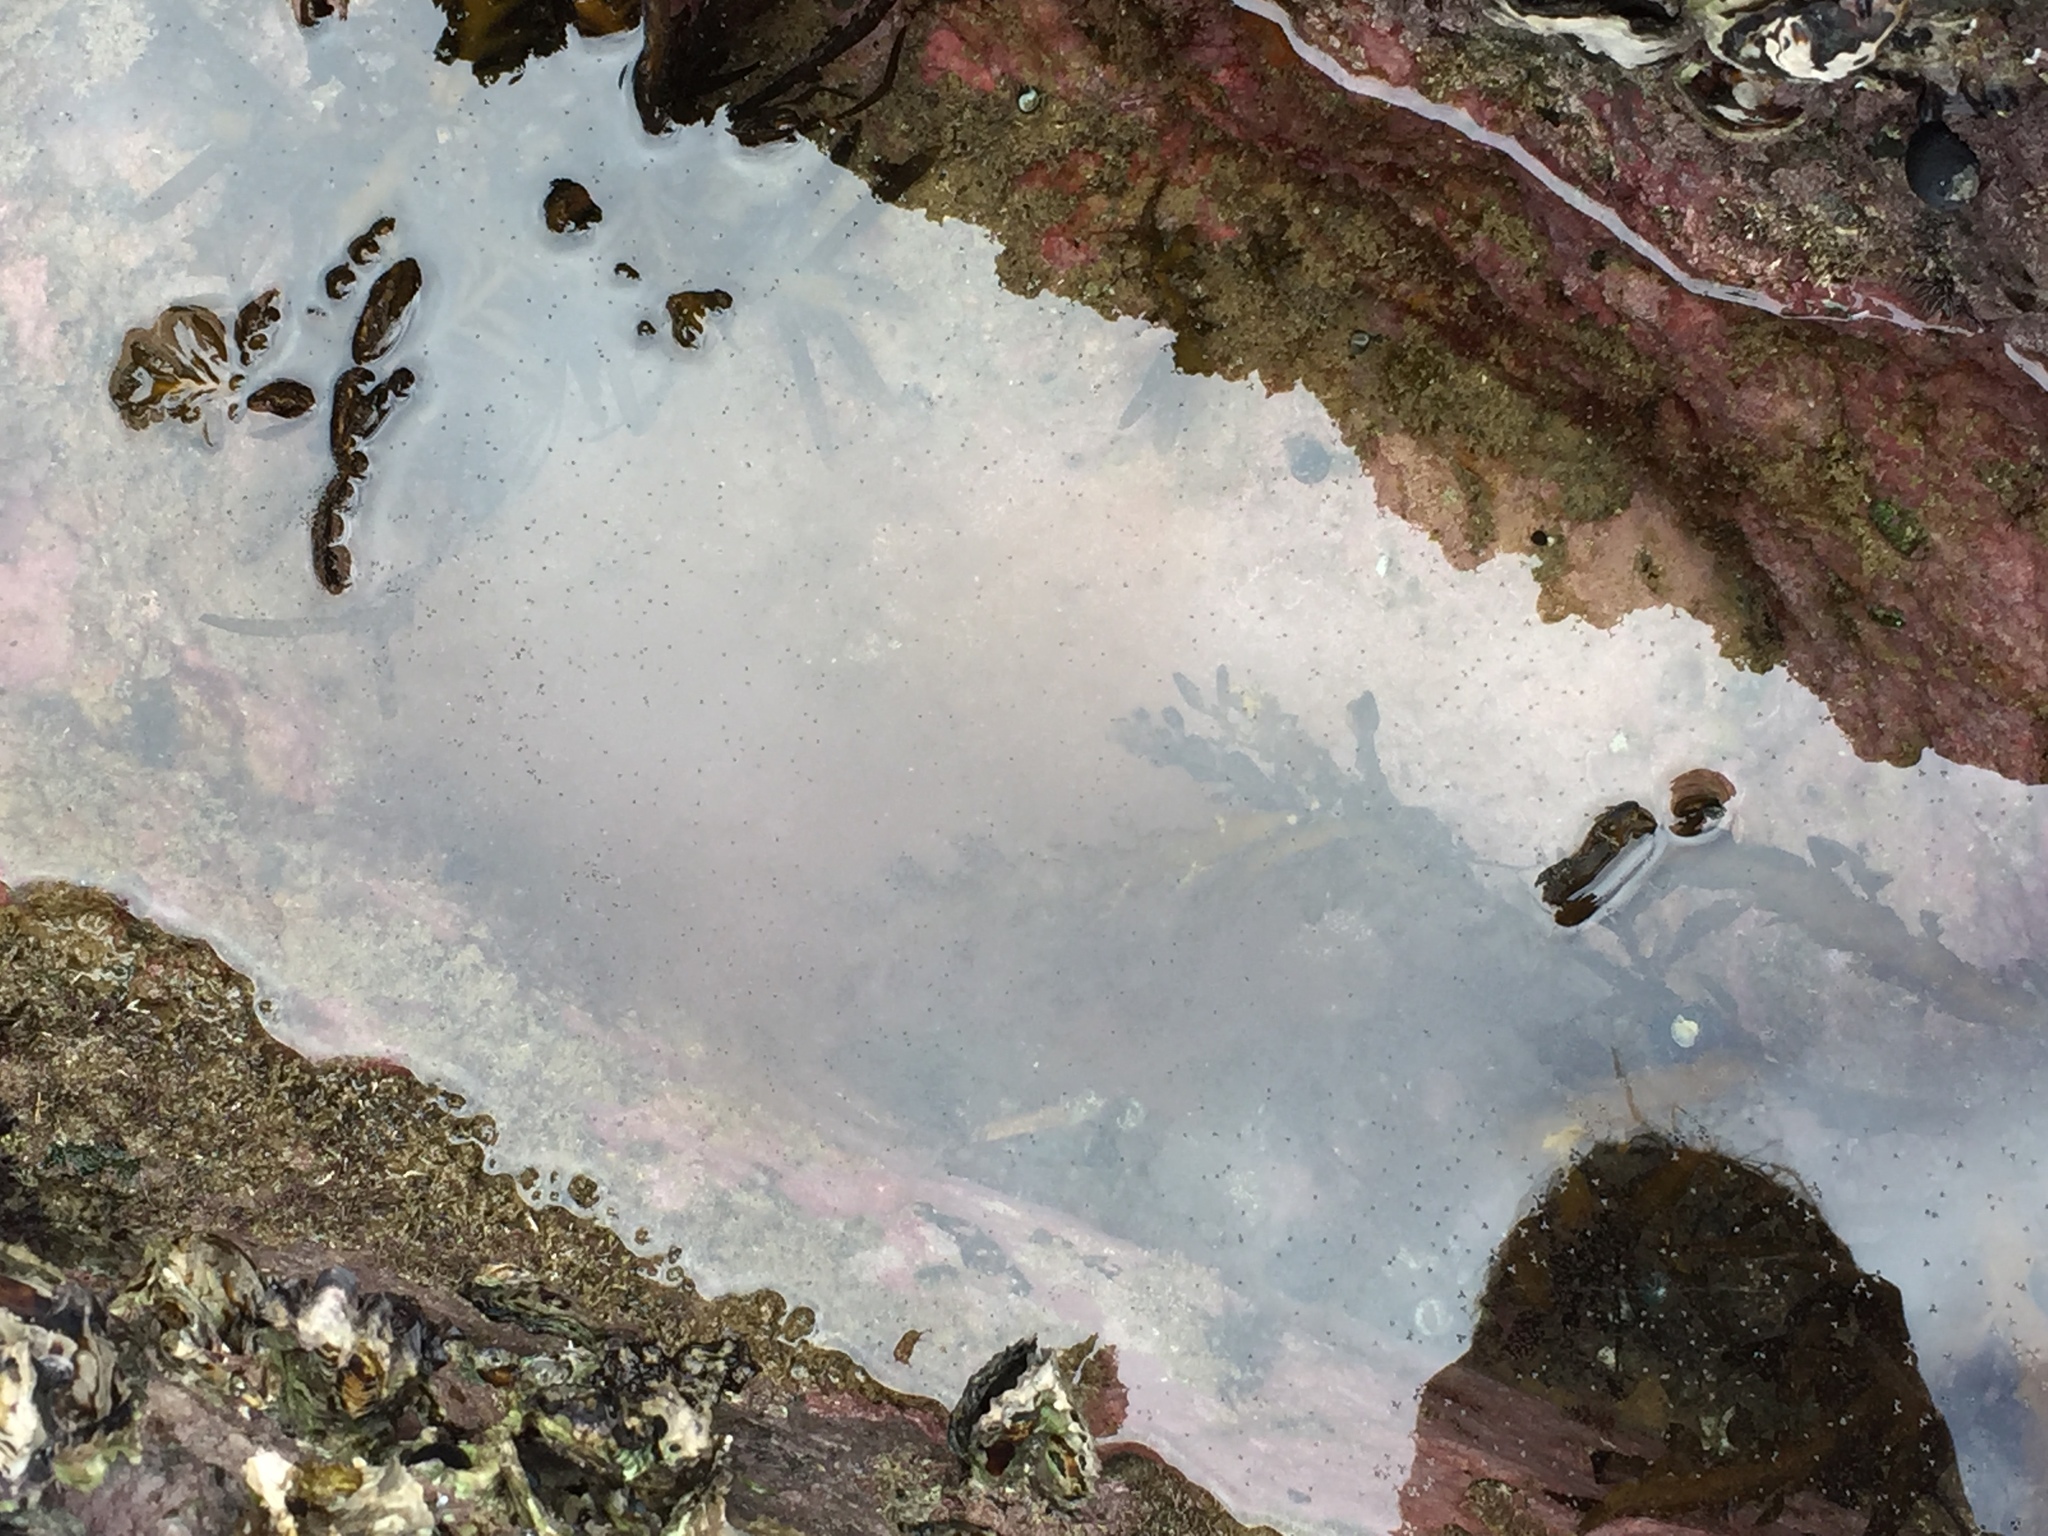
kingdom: Animalia
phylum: Echinodermata
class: Echinoidea
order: Camarodonta
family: Echinometridae
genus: Evechinus
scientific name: Evechinus chloroticus
